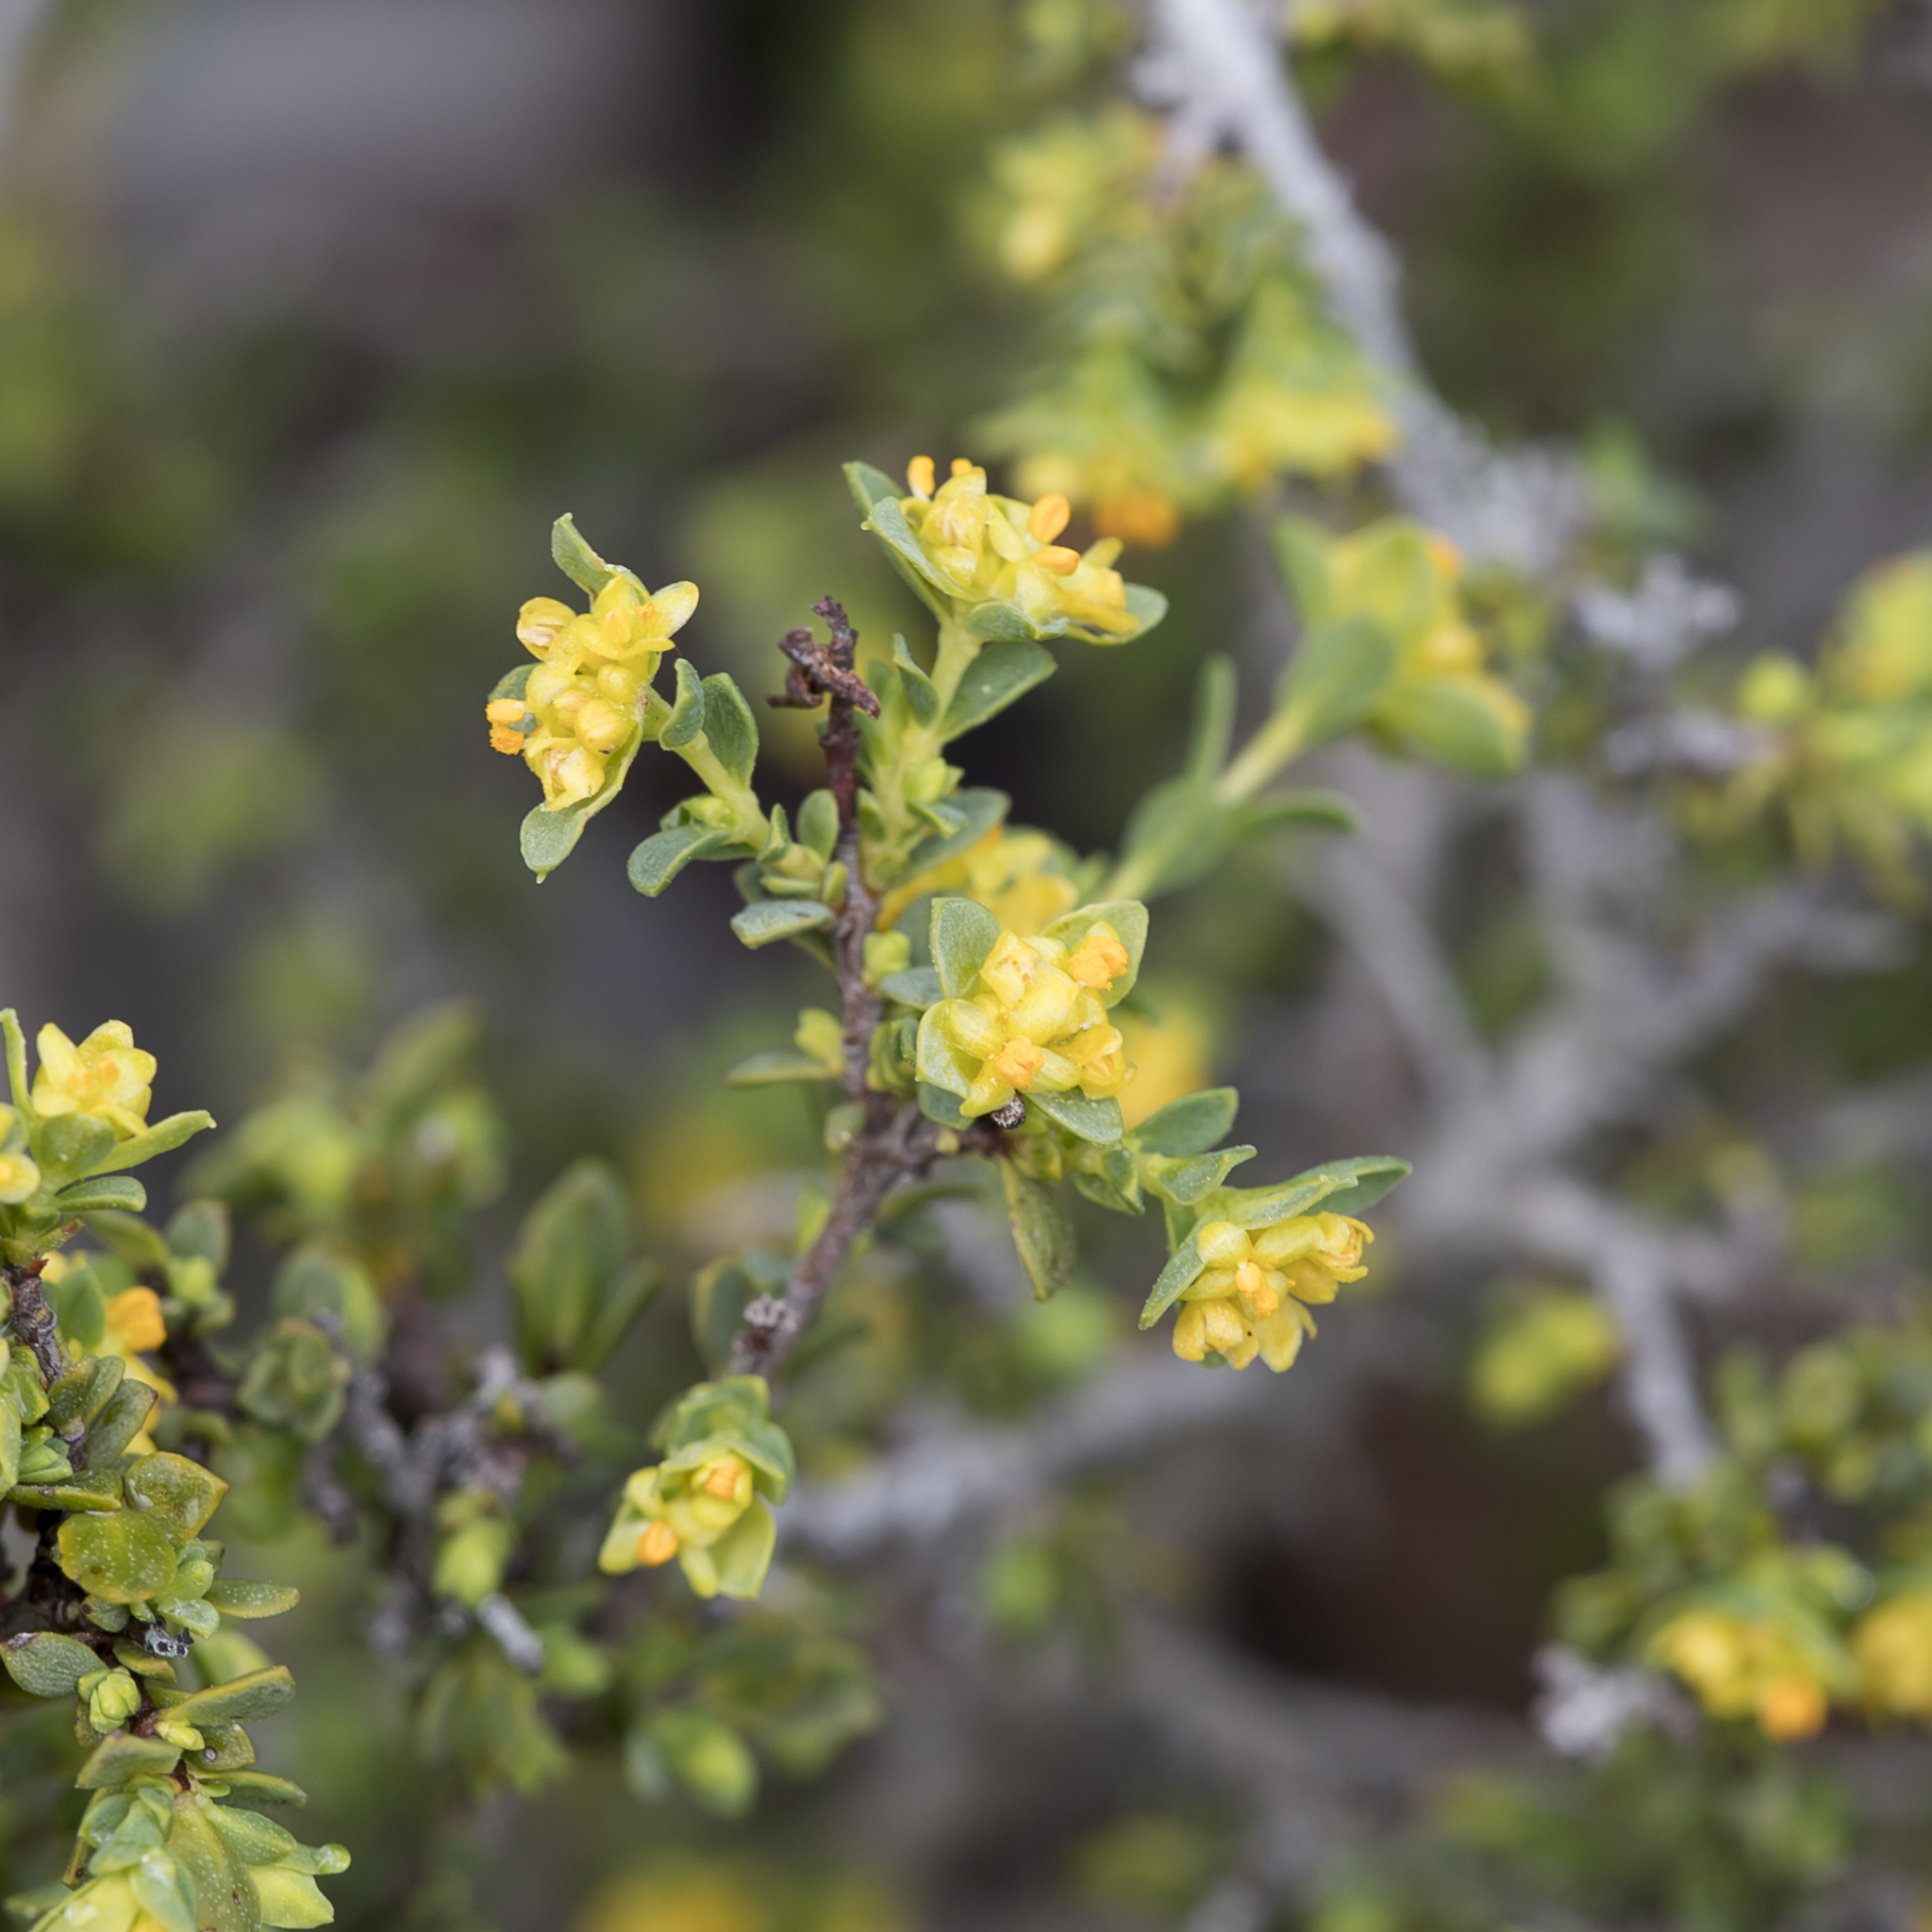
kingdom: Plantae
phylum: Tracheophyta
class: Magnoliopsida
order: Malvales
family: Thymelaeaceae
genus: Pimelea
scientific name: Pimelea serpyllifolia
